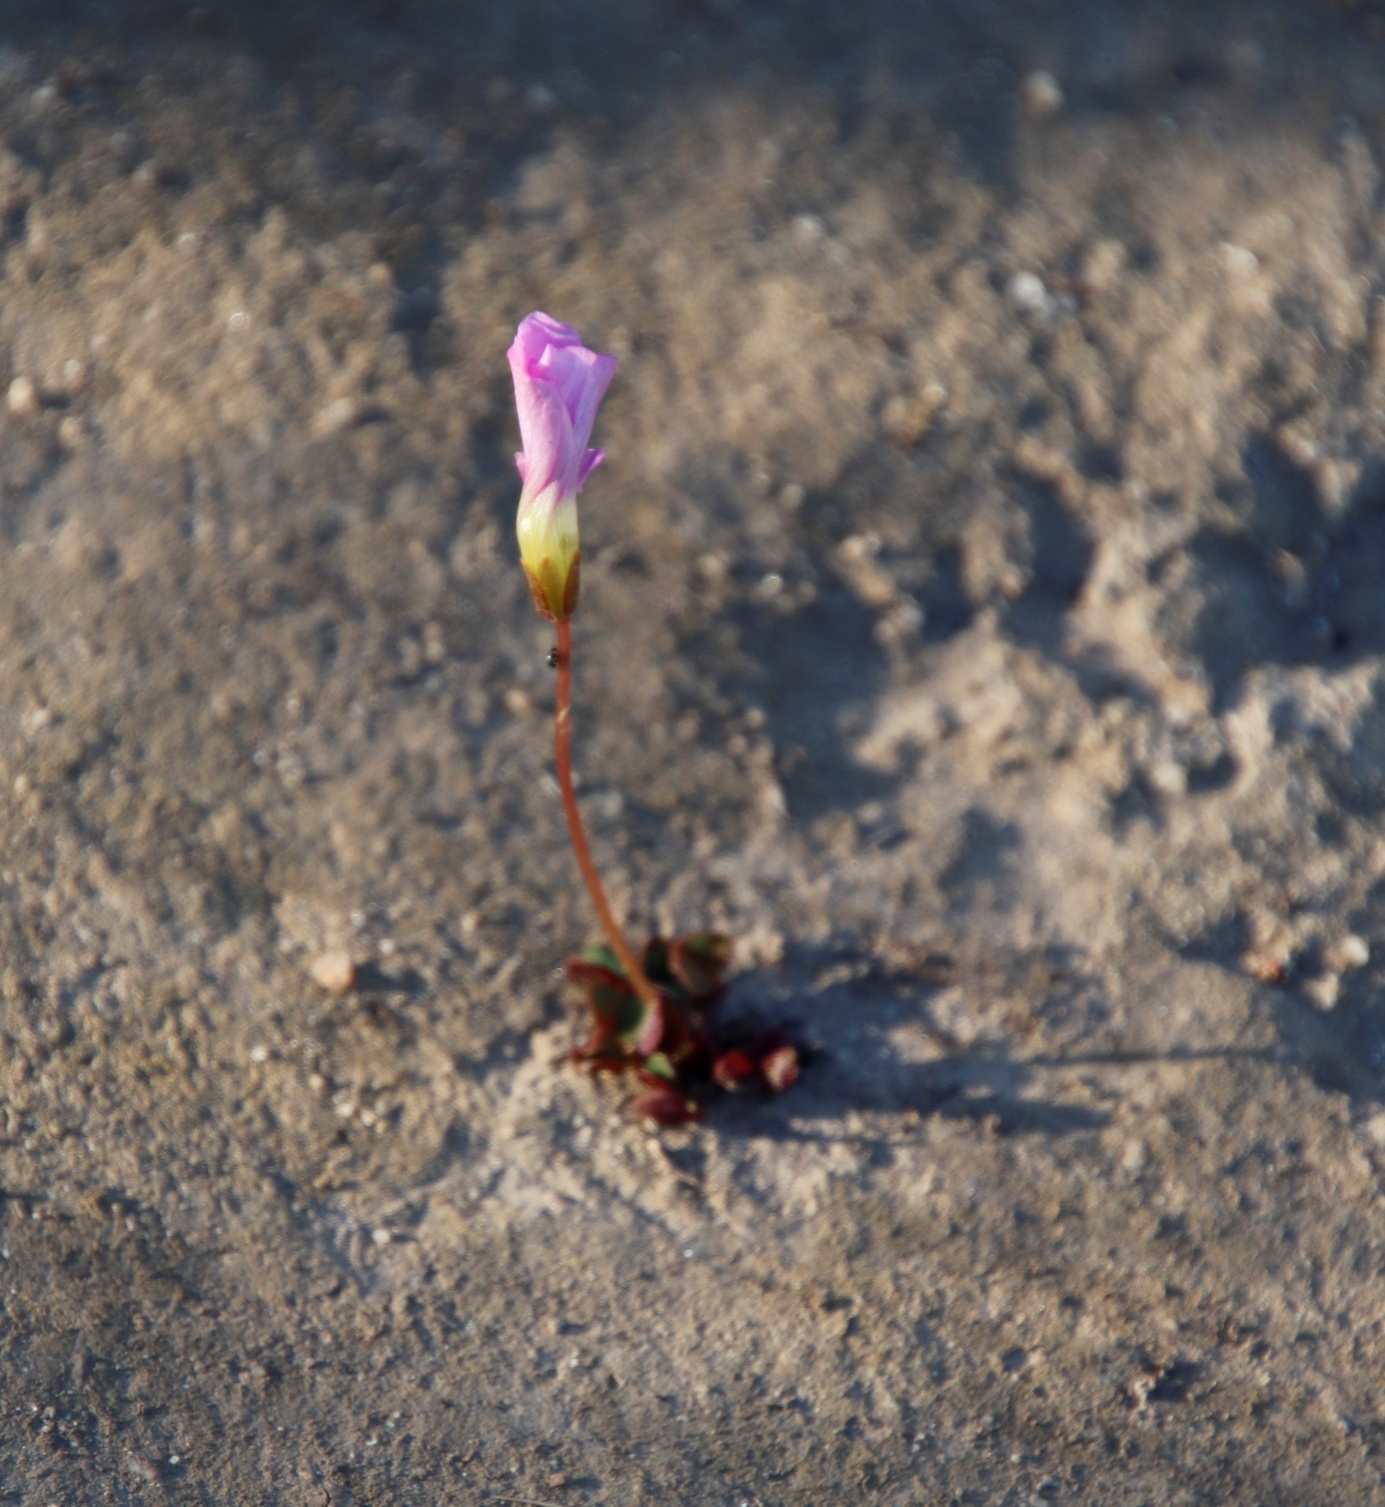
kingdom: Plantae
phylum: Tracheophyta
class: Magnoliopsida
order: Oxalidales
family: Oxalidaceae
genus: Oxalis
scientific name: Oxalis commutata
